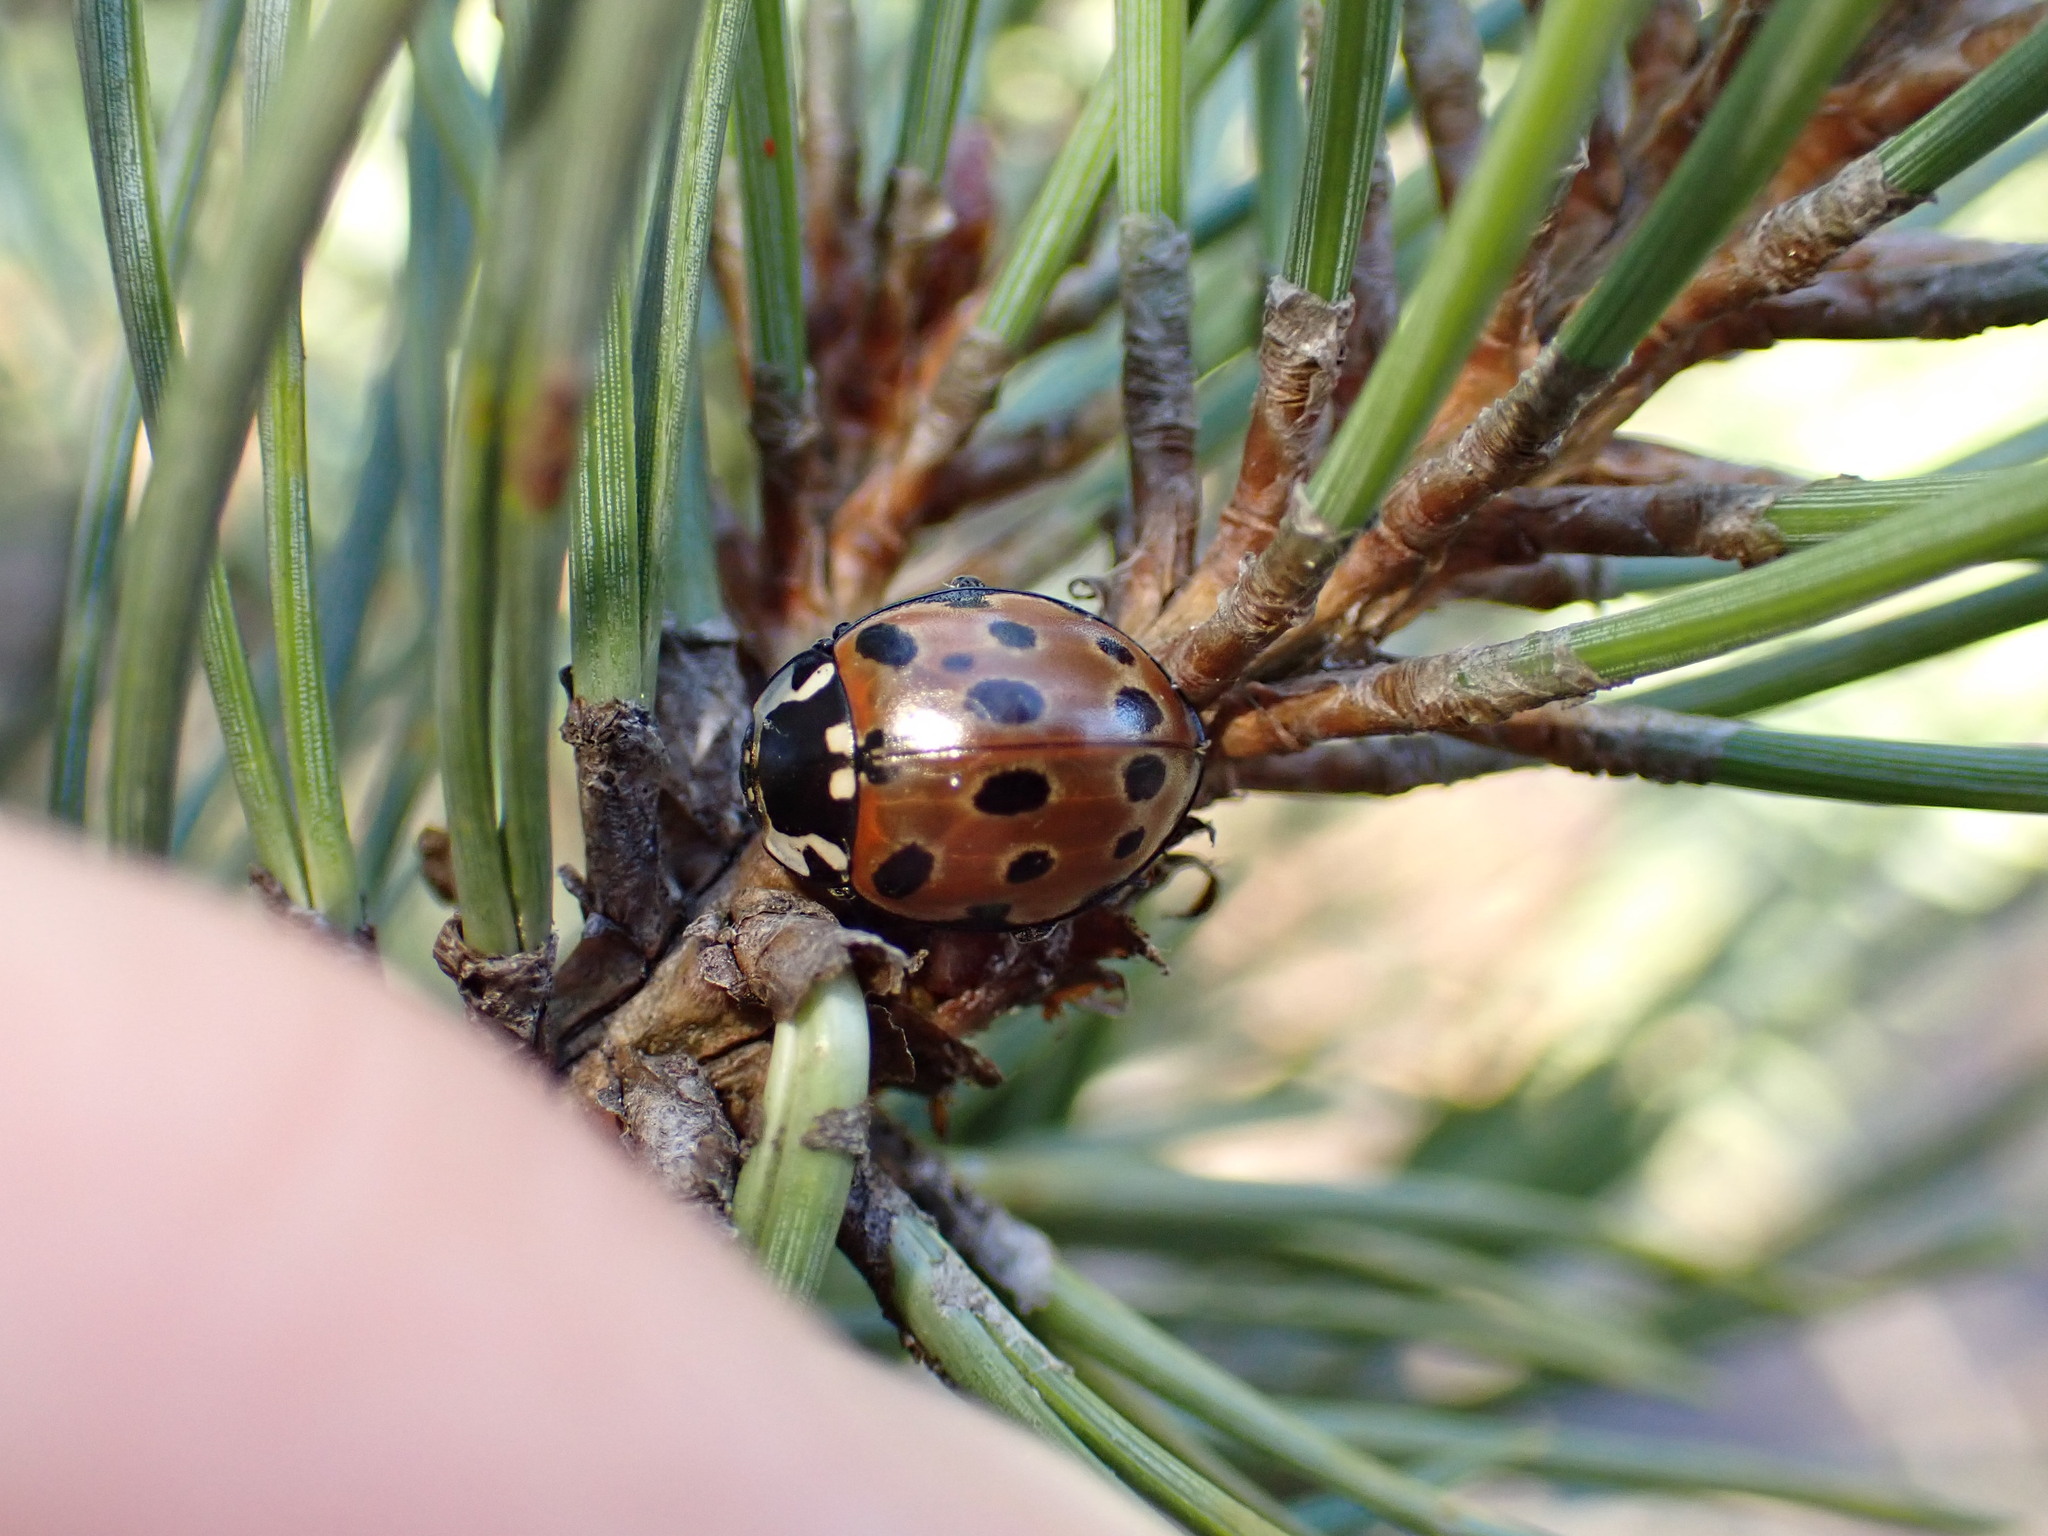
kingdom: Animalia
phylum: Arthropoda
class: Insecta
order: Coleoptera
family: Coccinellidae
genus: Anatis
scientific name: Anatis ocellata
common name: Eyed ladybird
